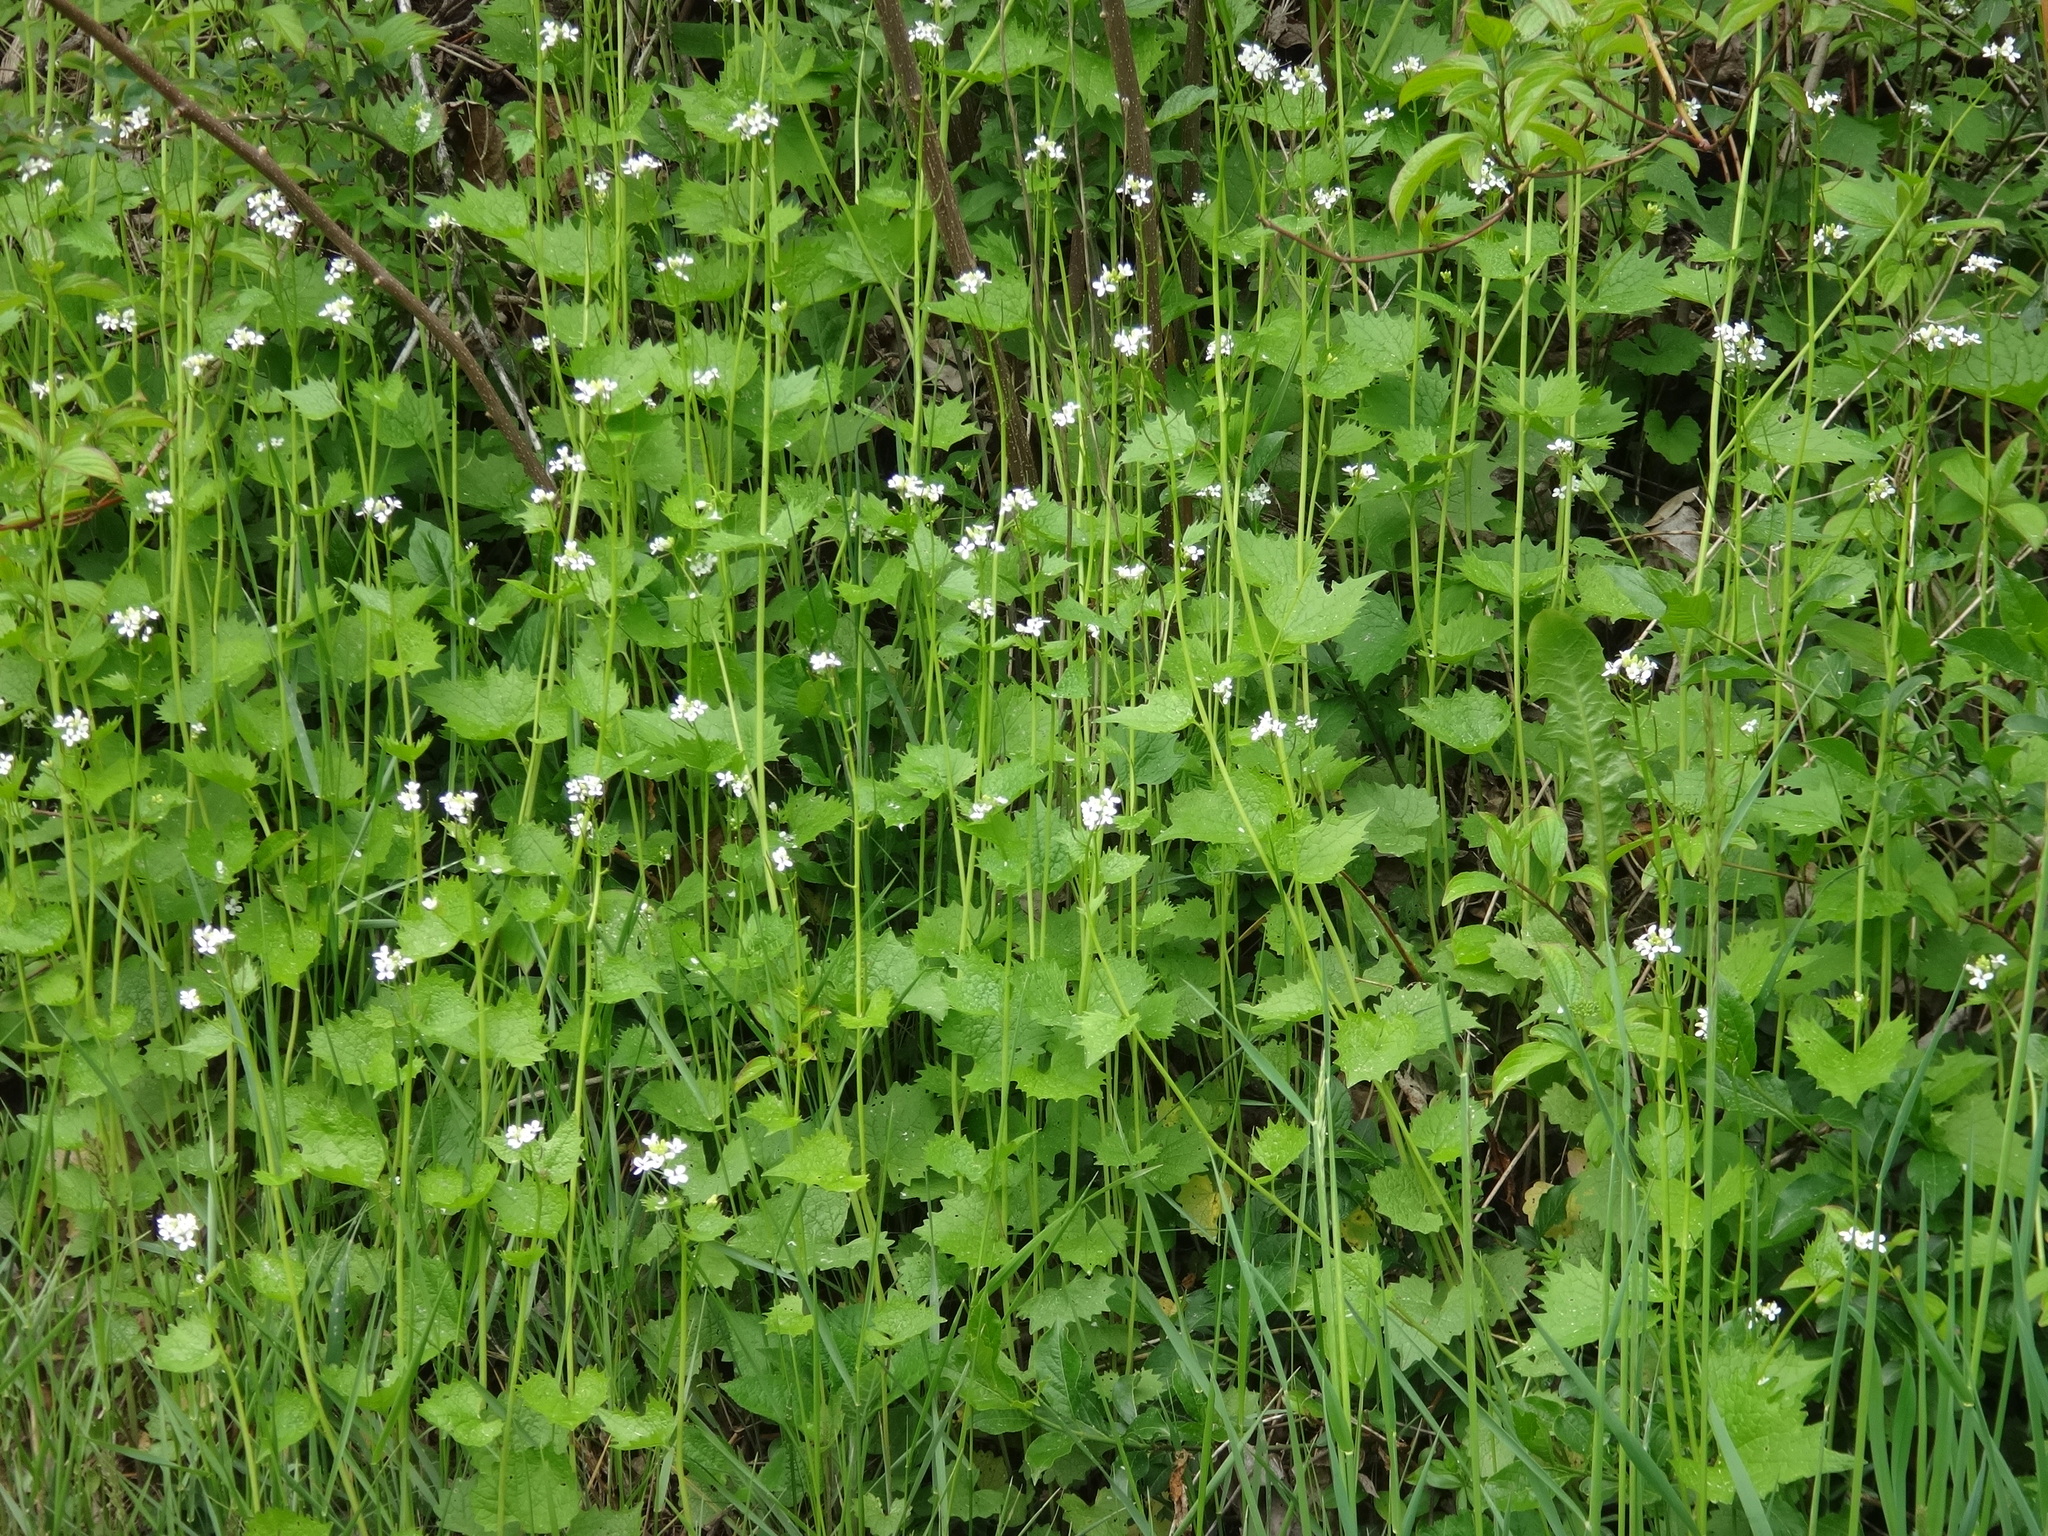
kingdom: Plantae
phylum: Tracheophyta
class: Magnoliopsida
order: Brassicales
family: Brassicaceae
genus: Alliaria
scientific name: Alliaria petiolata
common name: Garlic mustard
